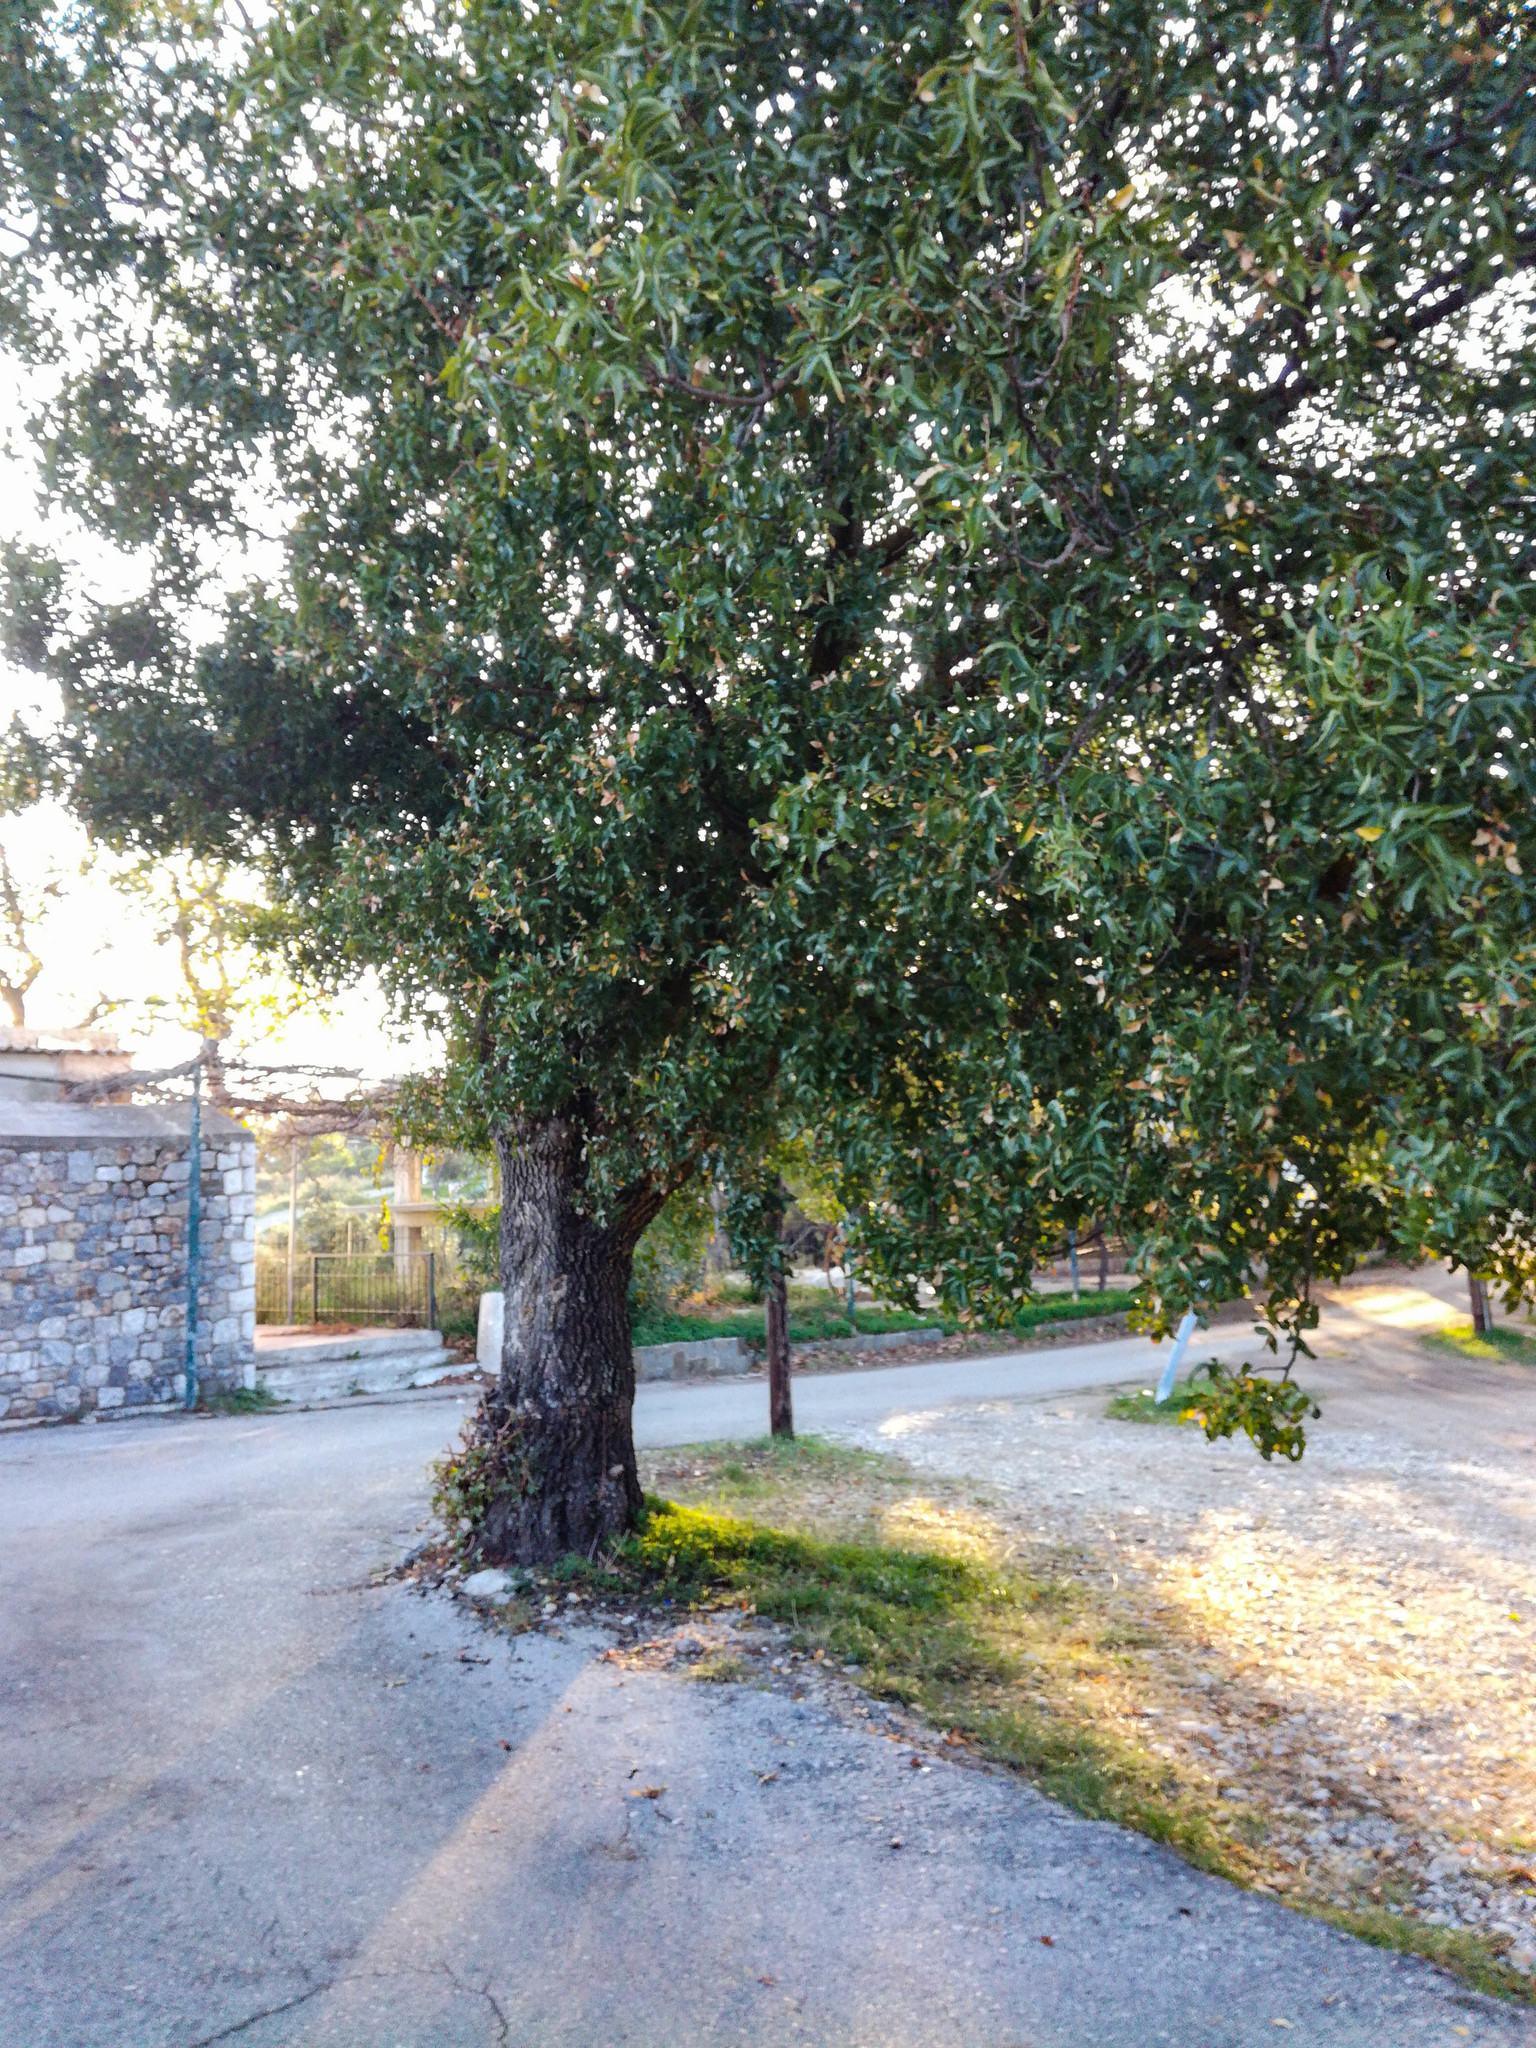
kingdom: Plantae
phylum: Tracheophyta
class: Magnoliopsida
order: Sapindales
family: Anacardiaceae
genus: Pistacia
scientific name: Pistacia atlantica
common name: Mt. atlas mastic tree
